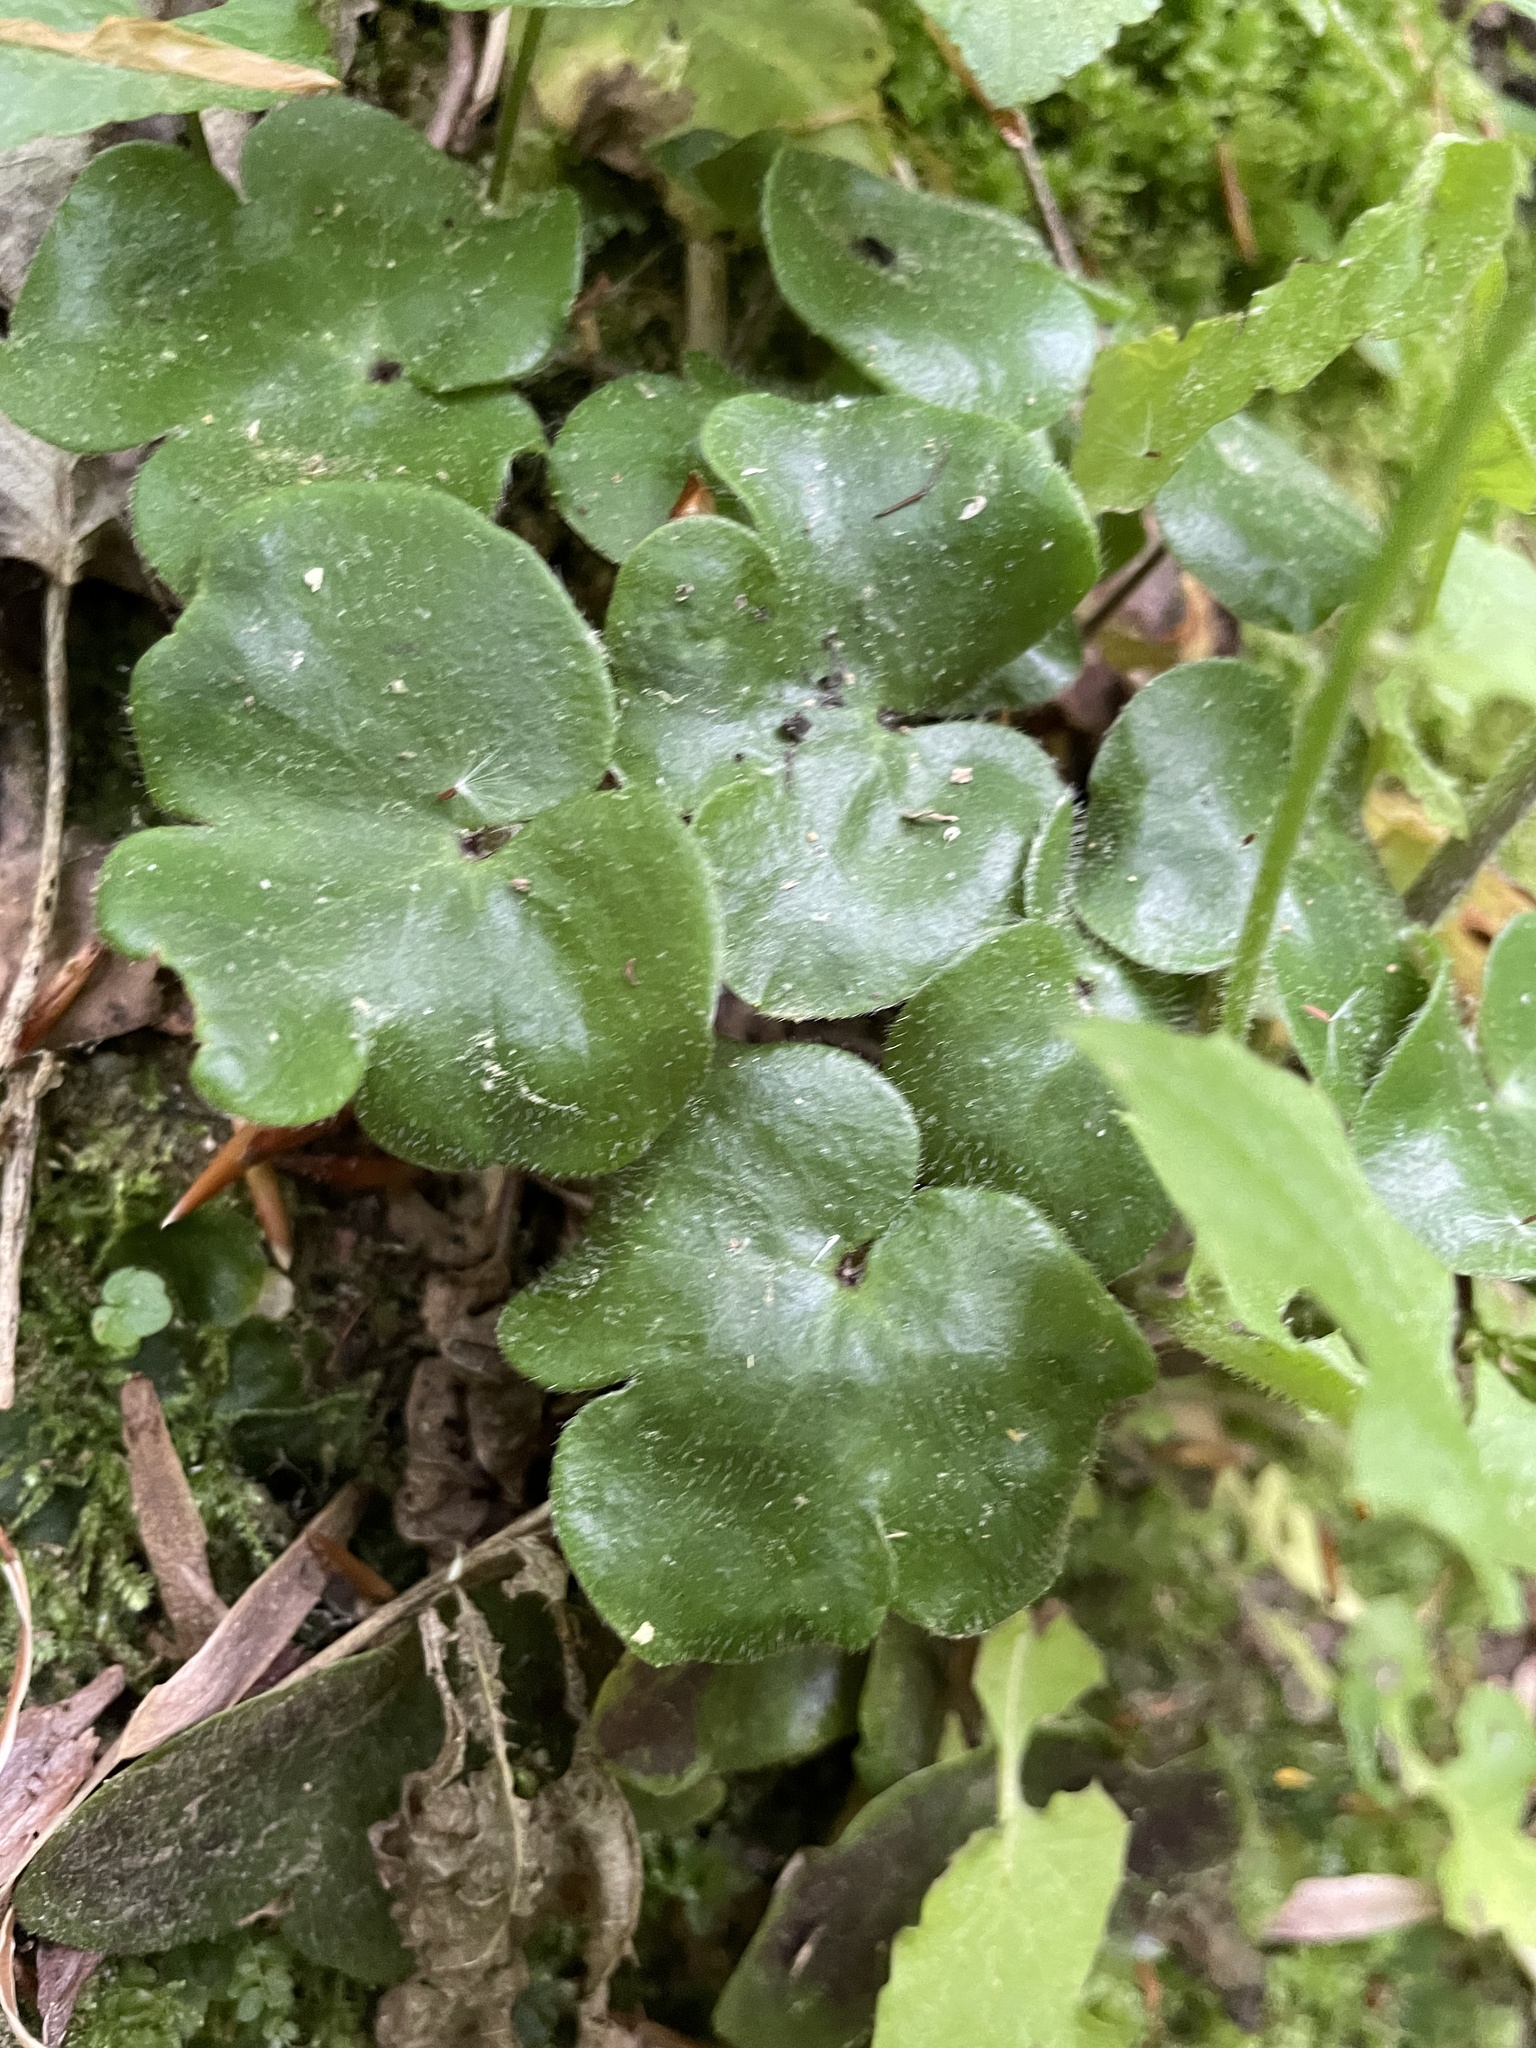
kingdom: Plantae
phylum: Tracheophyta
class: Magnoliopsida
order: Ranunculales
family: Ranunculaceae
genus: Hepatica
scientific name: Hepatica americana
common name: American hepatica
